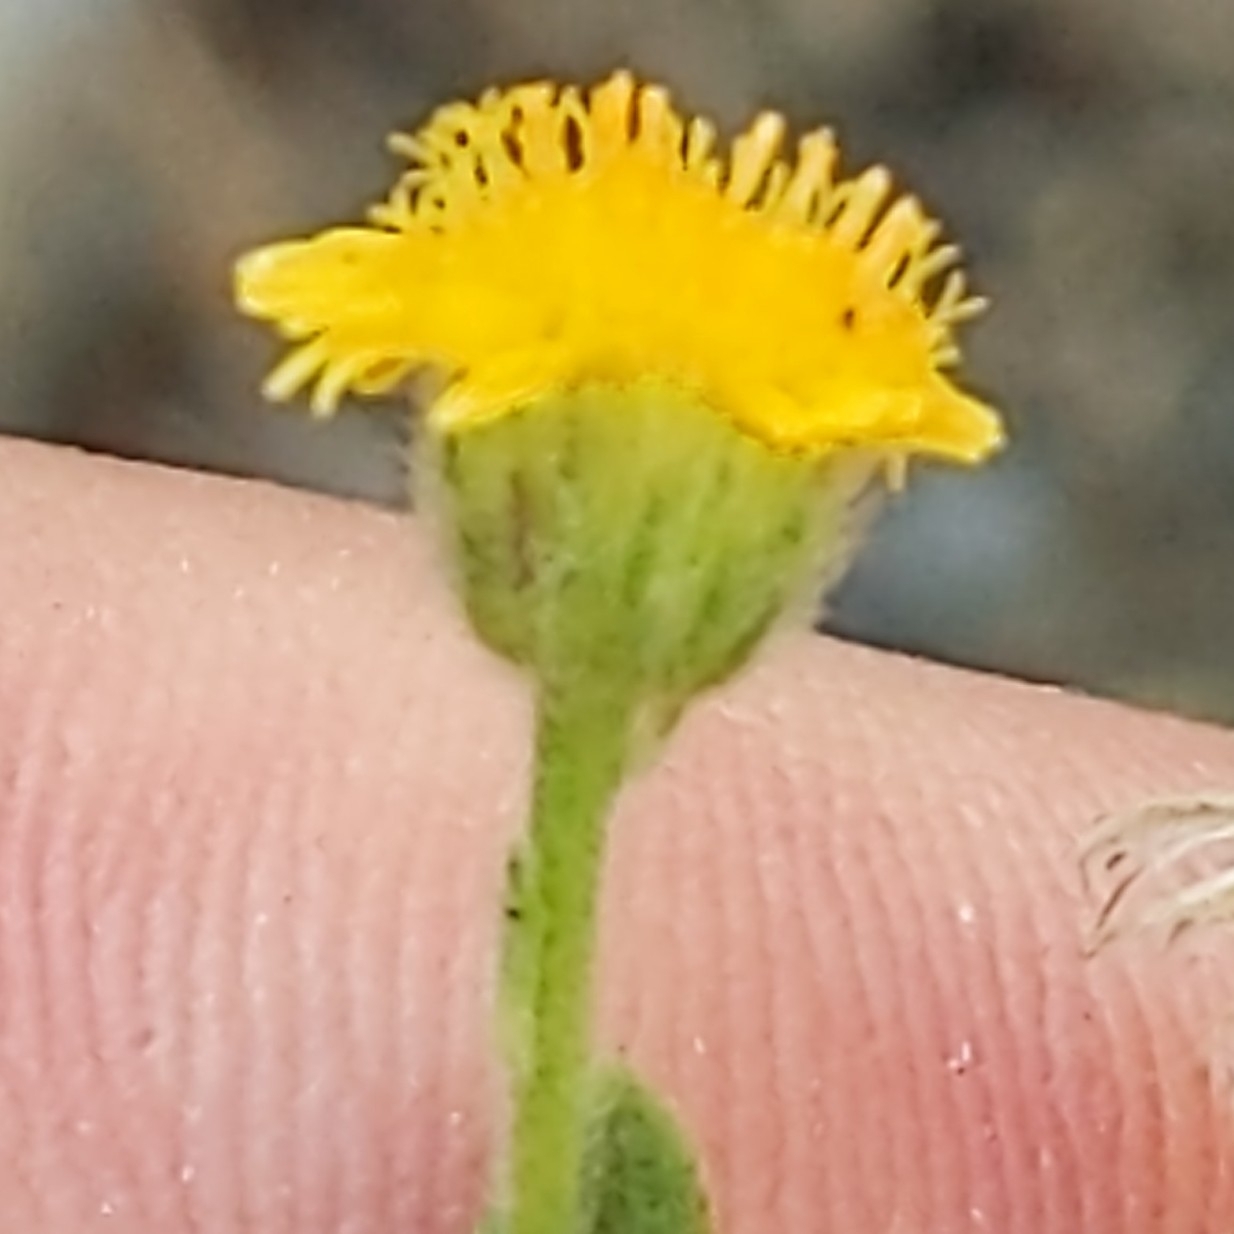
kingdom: Plantae
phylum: Tracheophyta
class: Magnoliopsida
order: Asterales
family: Asteraceae
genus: Pulicaria
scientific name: Pulicaria paludosa
